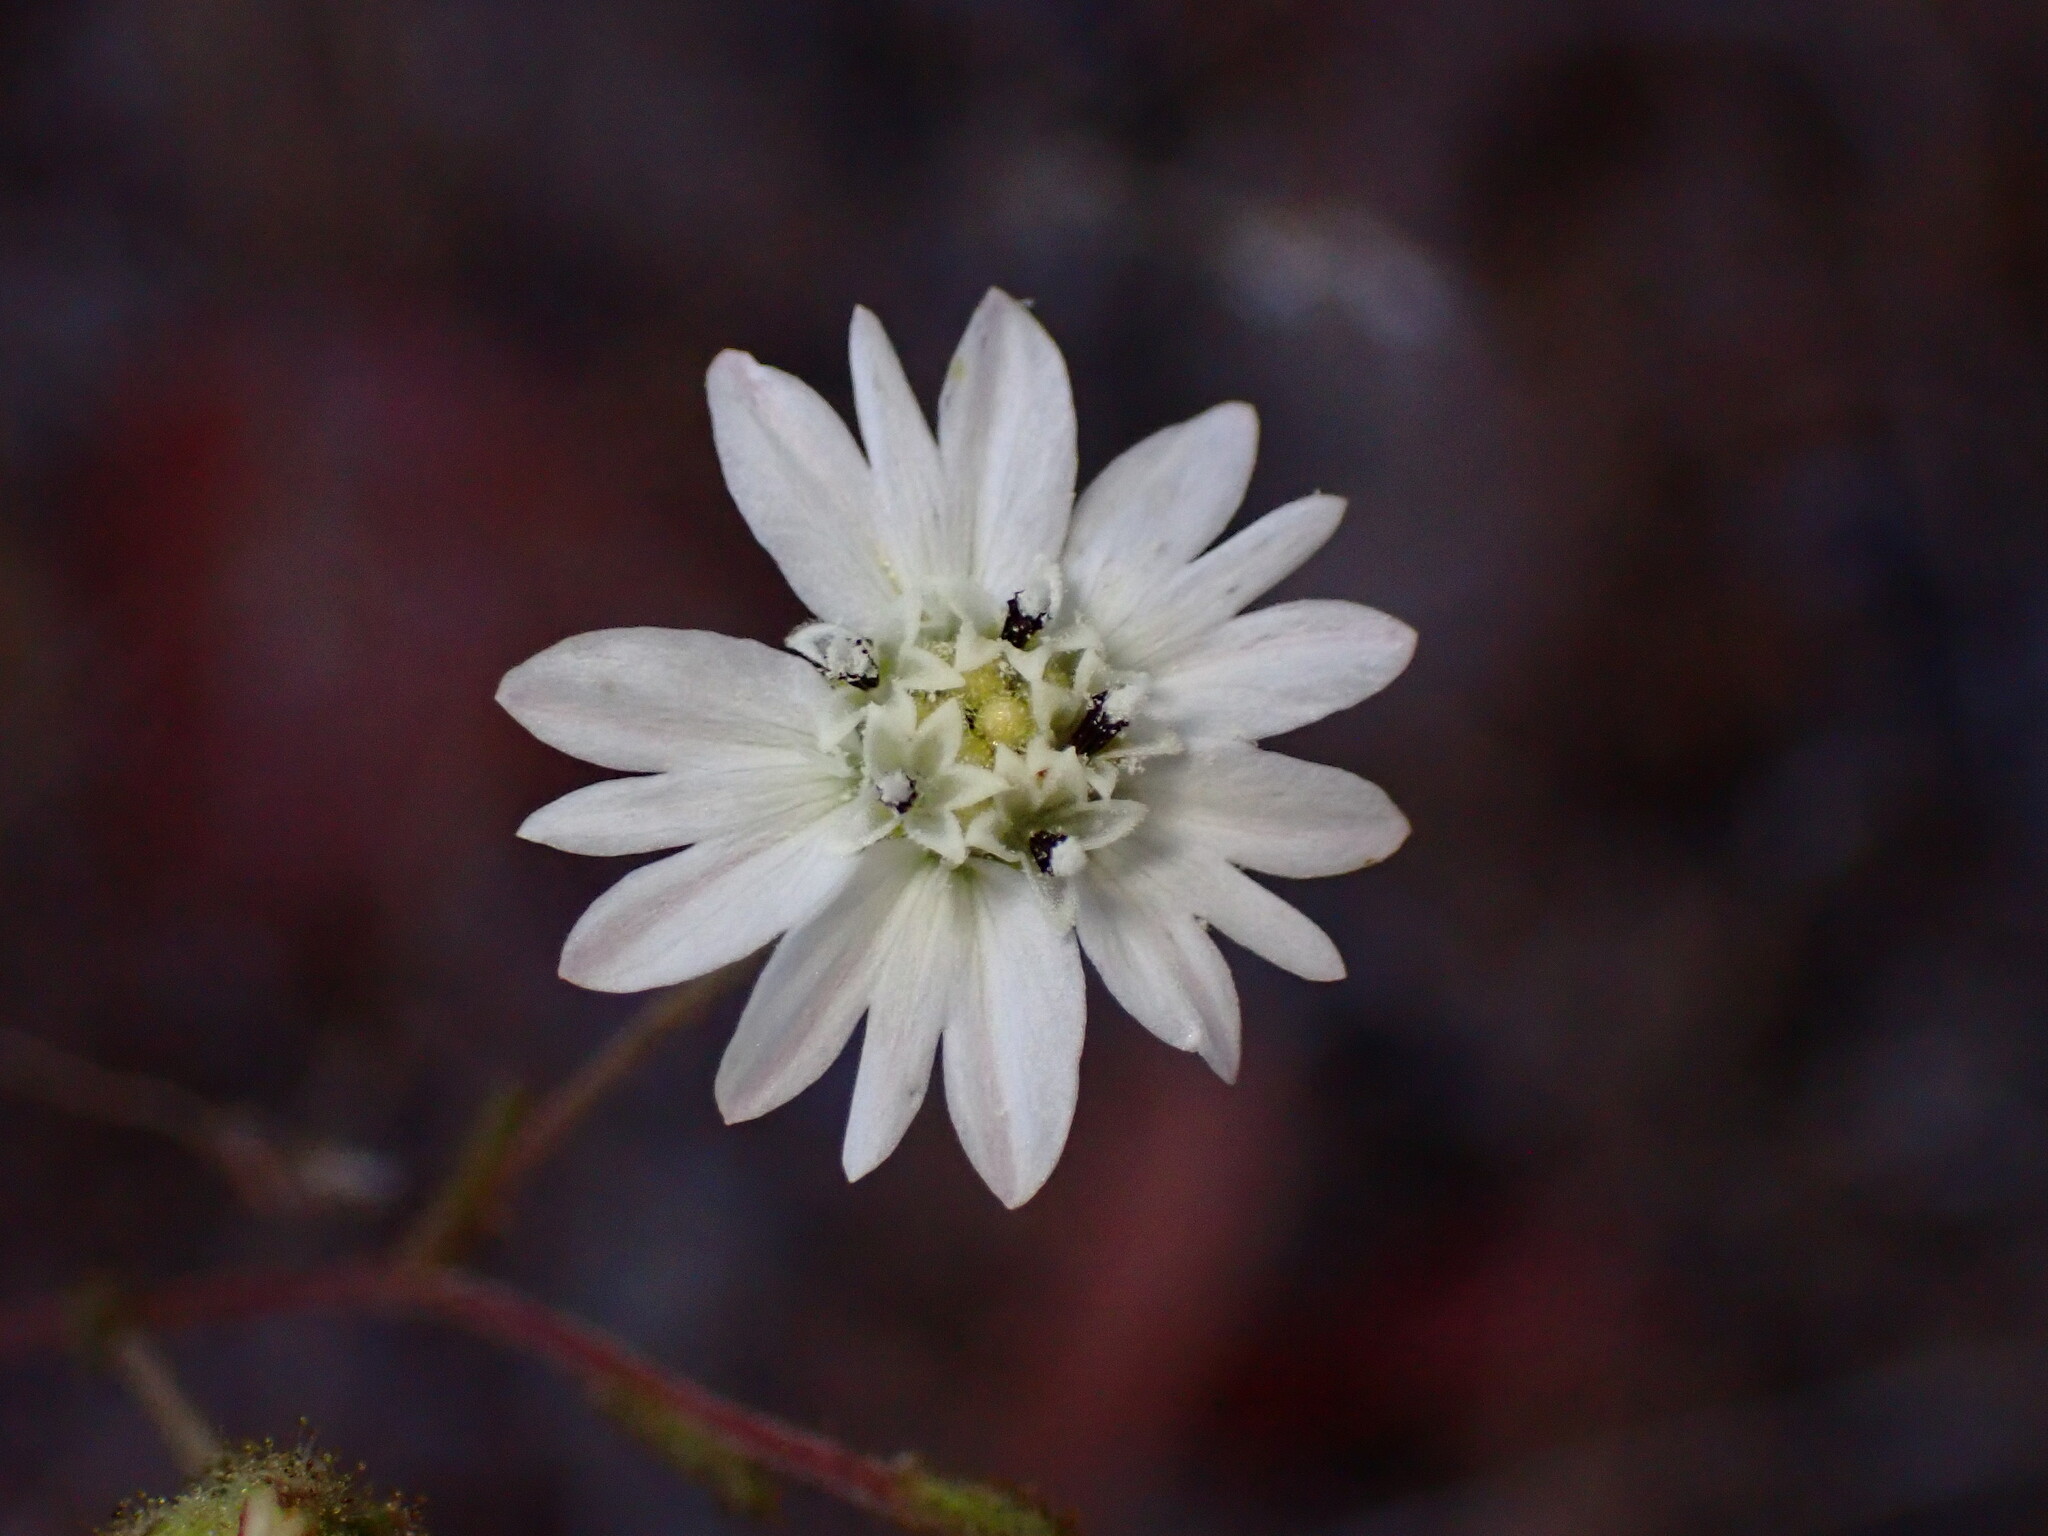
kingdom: Plantae
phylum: Tracheophyta
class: Magnoliopsida
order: Asterales
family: Asteraceae
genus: Hemizonia
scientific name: Hemizonia congesta
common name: Hayfield tarweed
